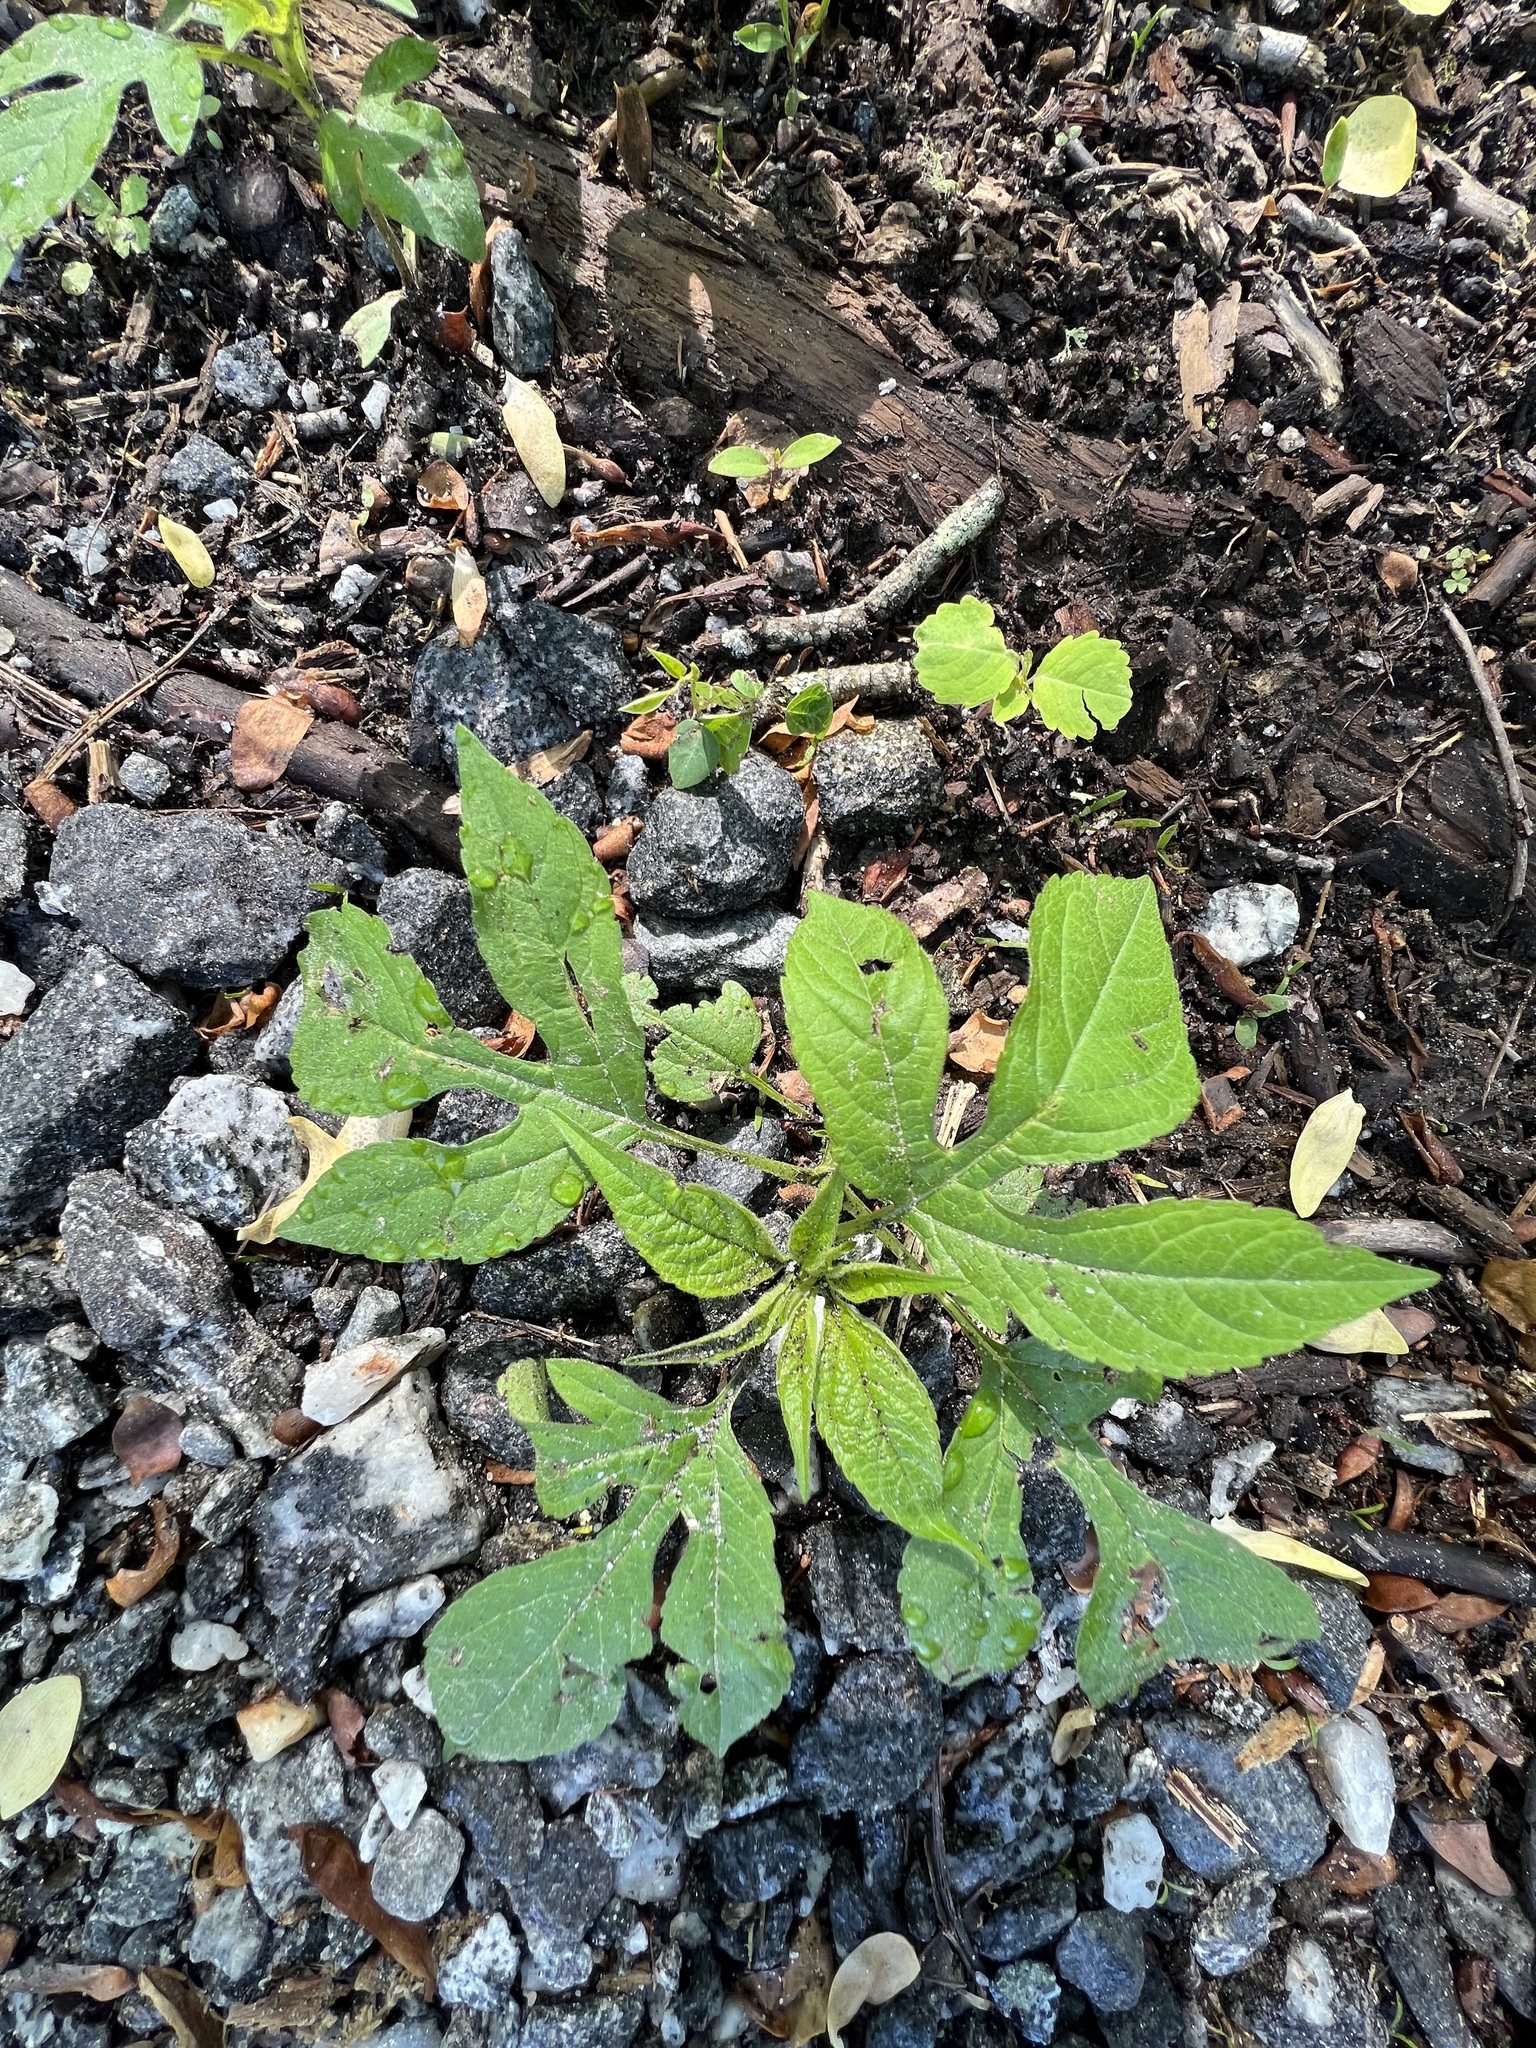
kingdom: Plantae
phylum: Tracheophyta
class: Magnoliopsida
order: Asterales
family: Asteraceae
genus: Ambrosia
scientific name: Ambrosia trifida
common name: Giant ragweed
